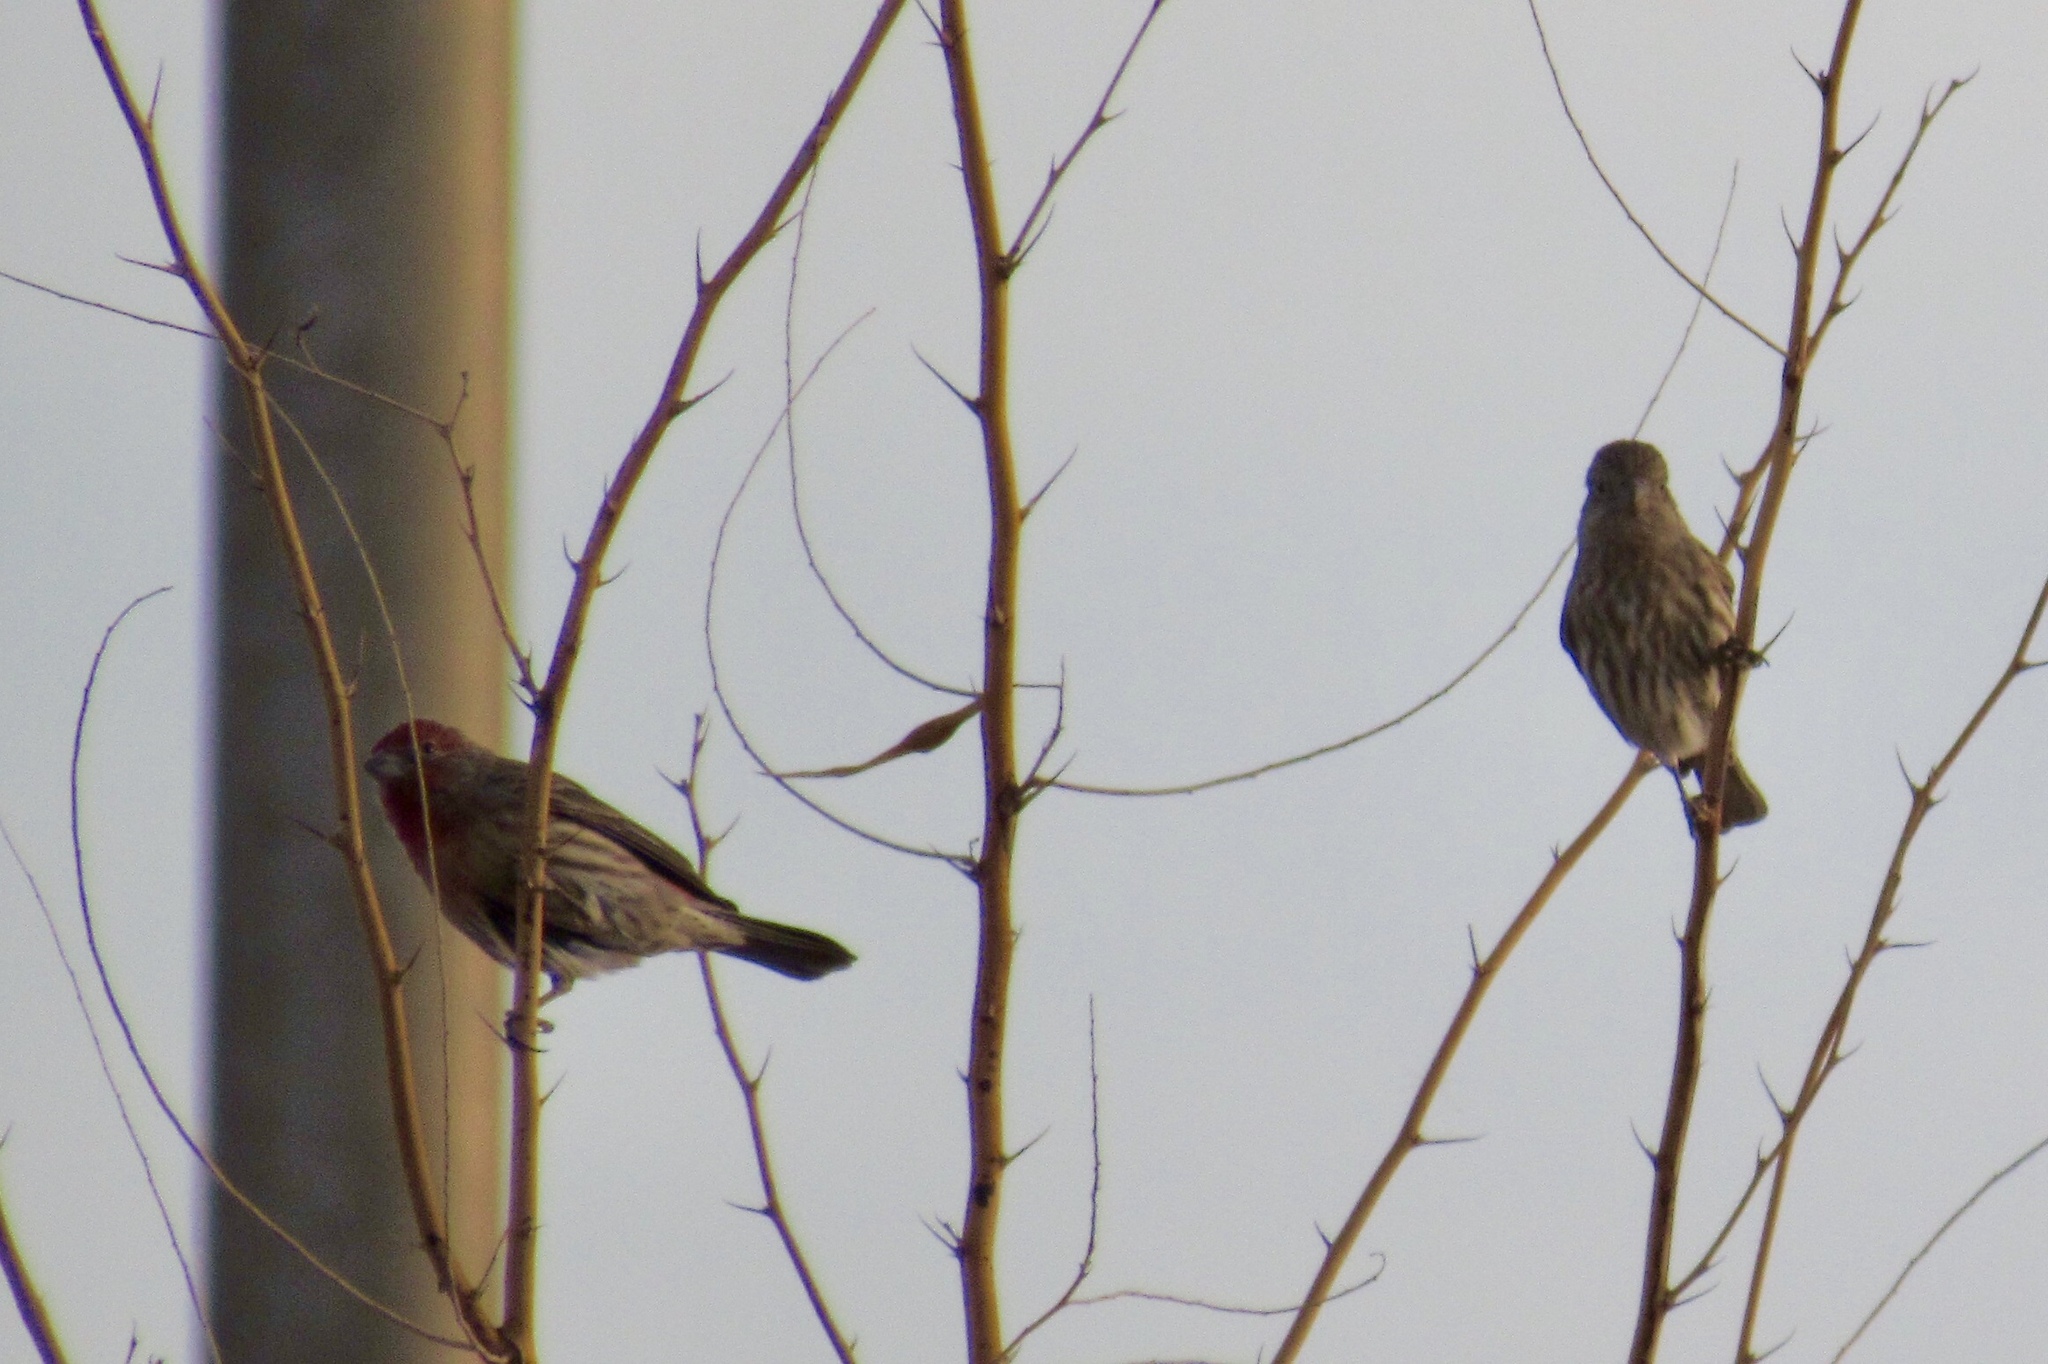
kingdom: Animalia
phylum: Chordata
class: Aves
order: Passeriformes
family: Fringillidae
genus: Haemorhous
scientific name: Haemorhous mexicanus
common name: House finch
